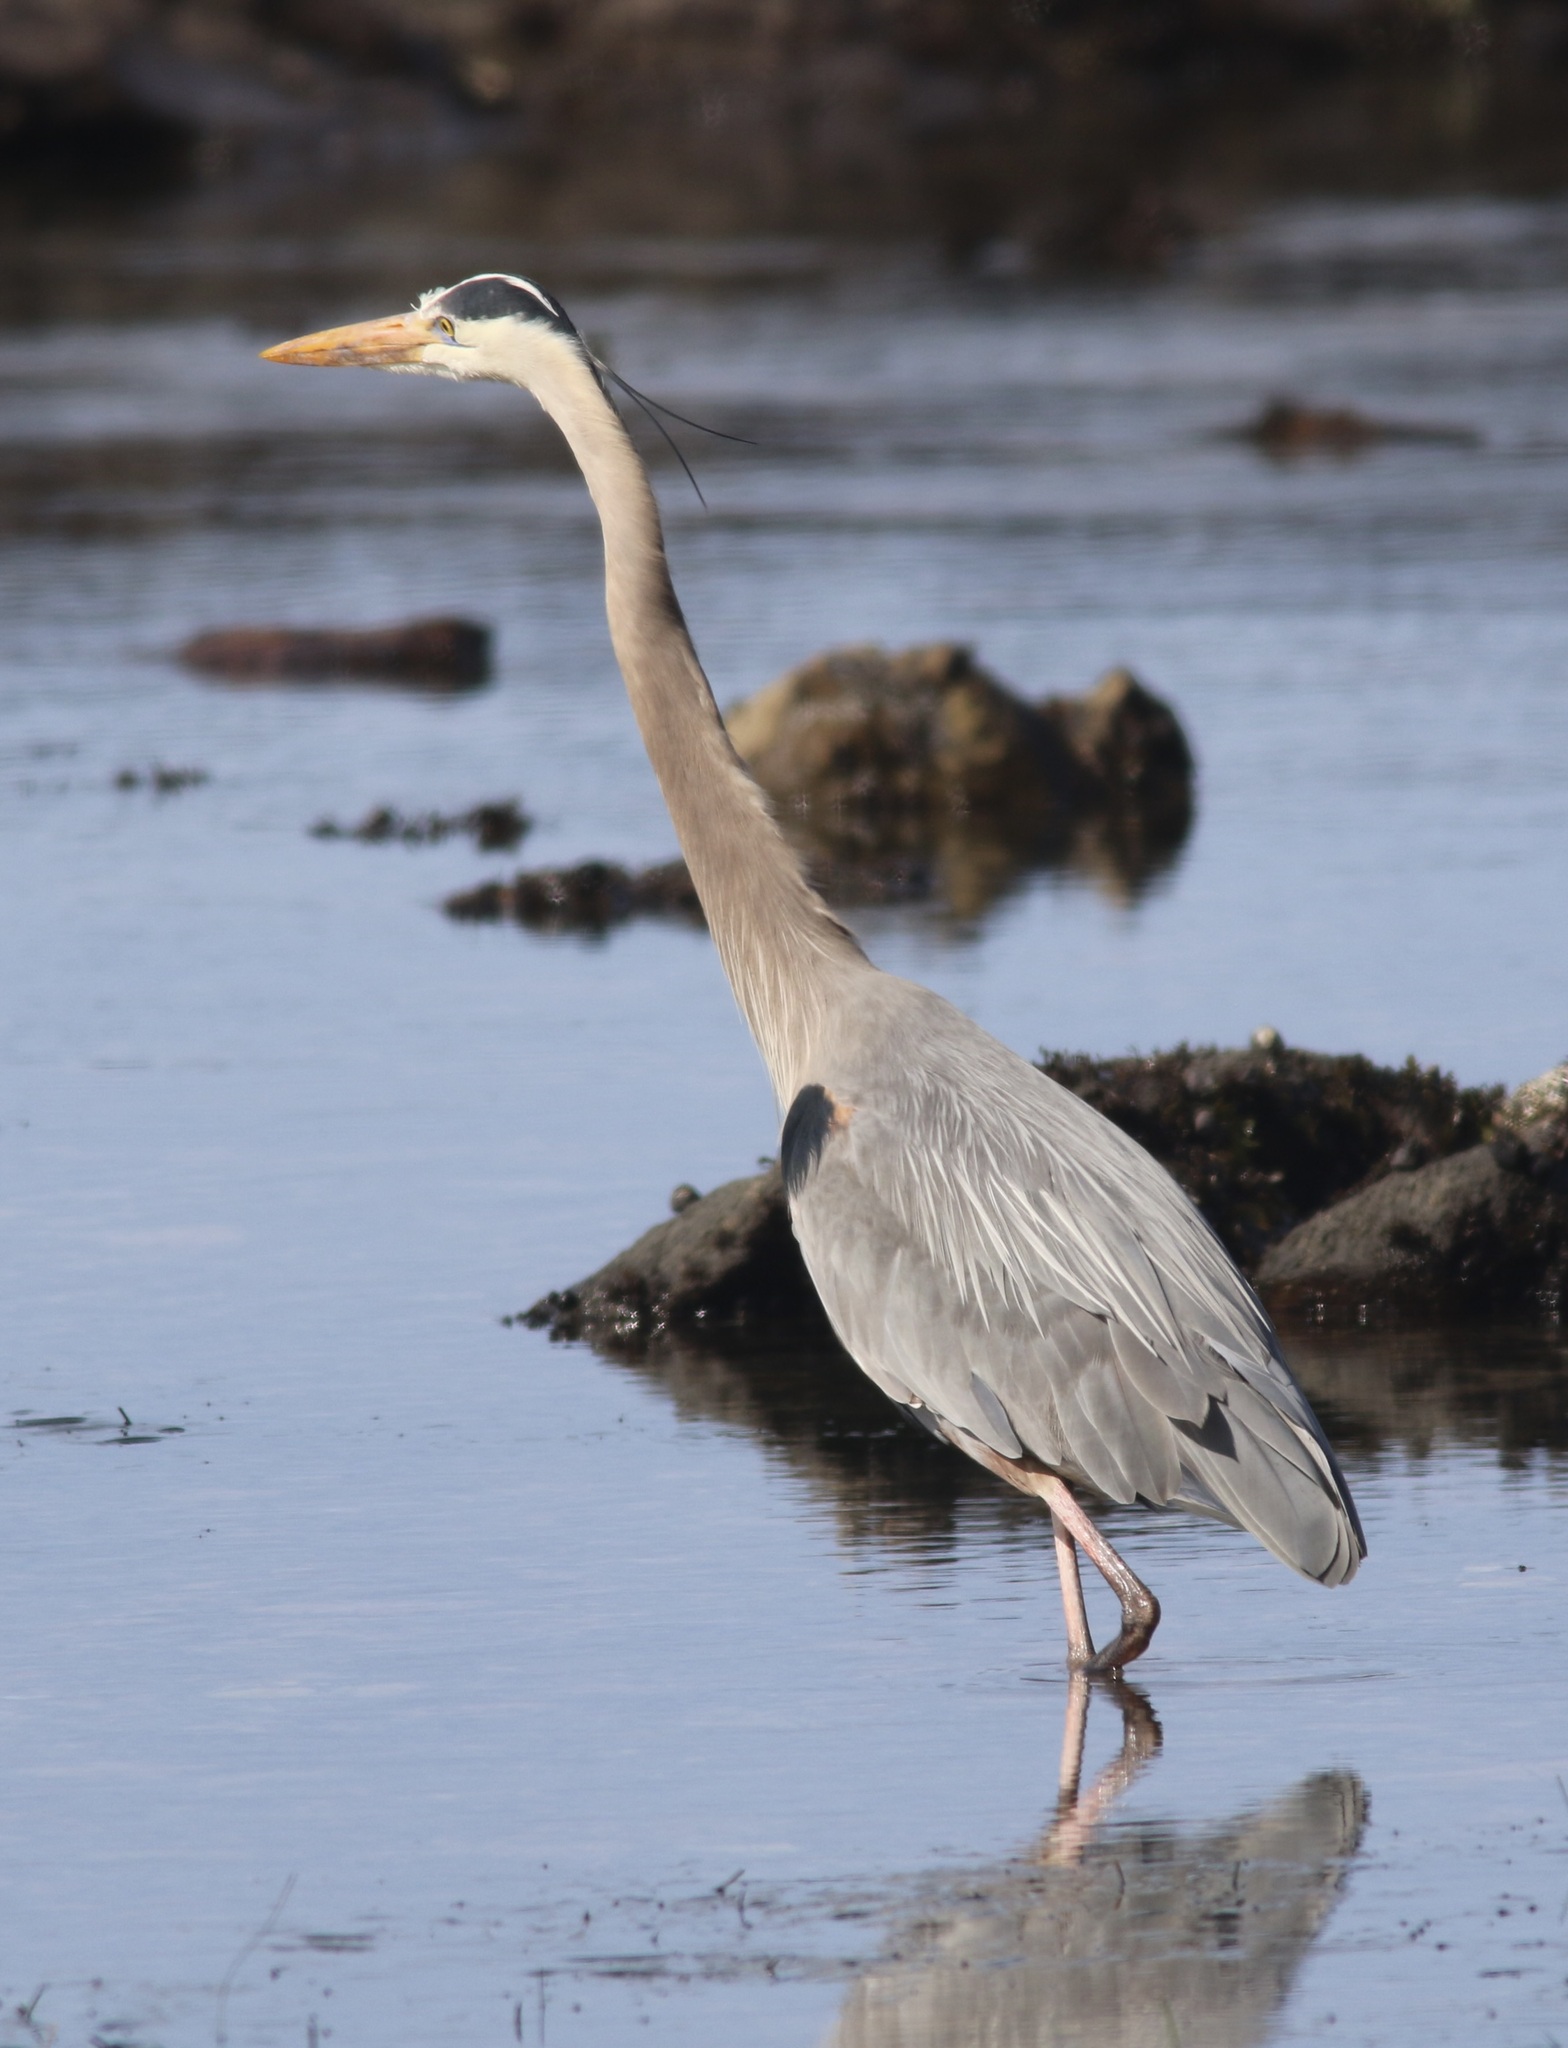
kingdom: Animalia
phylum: Chordata
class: Aves
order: Pelecaniformes
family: Ardeidae
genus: Ardea
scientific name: Ardea herodias
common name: Great blue heron
